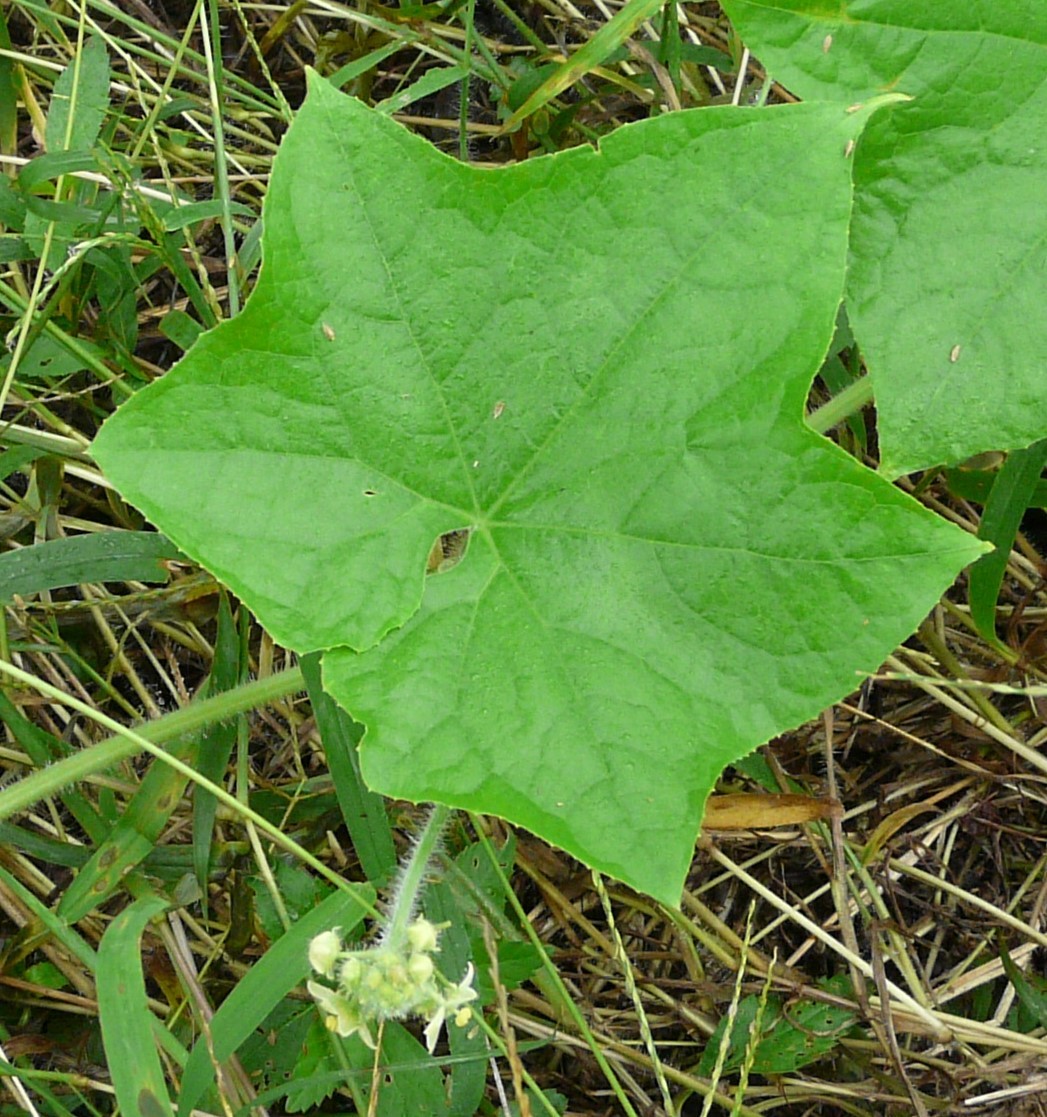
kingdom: Plantae
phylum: Tracheophyta
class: Magnoliopsida
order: Cucurbitales
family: Cucurbitaceae
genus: Sicyos
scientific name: Sicyos angulatus
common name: Angled burr cucumber
